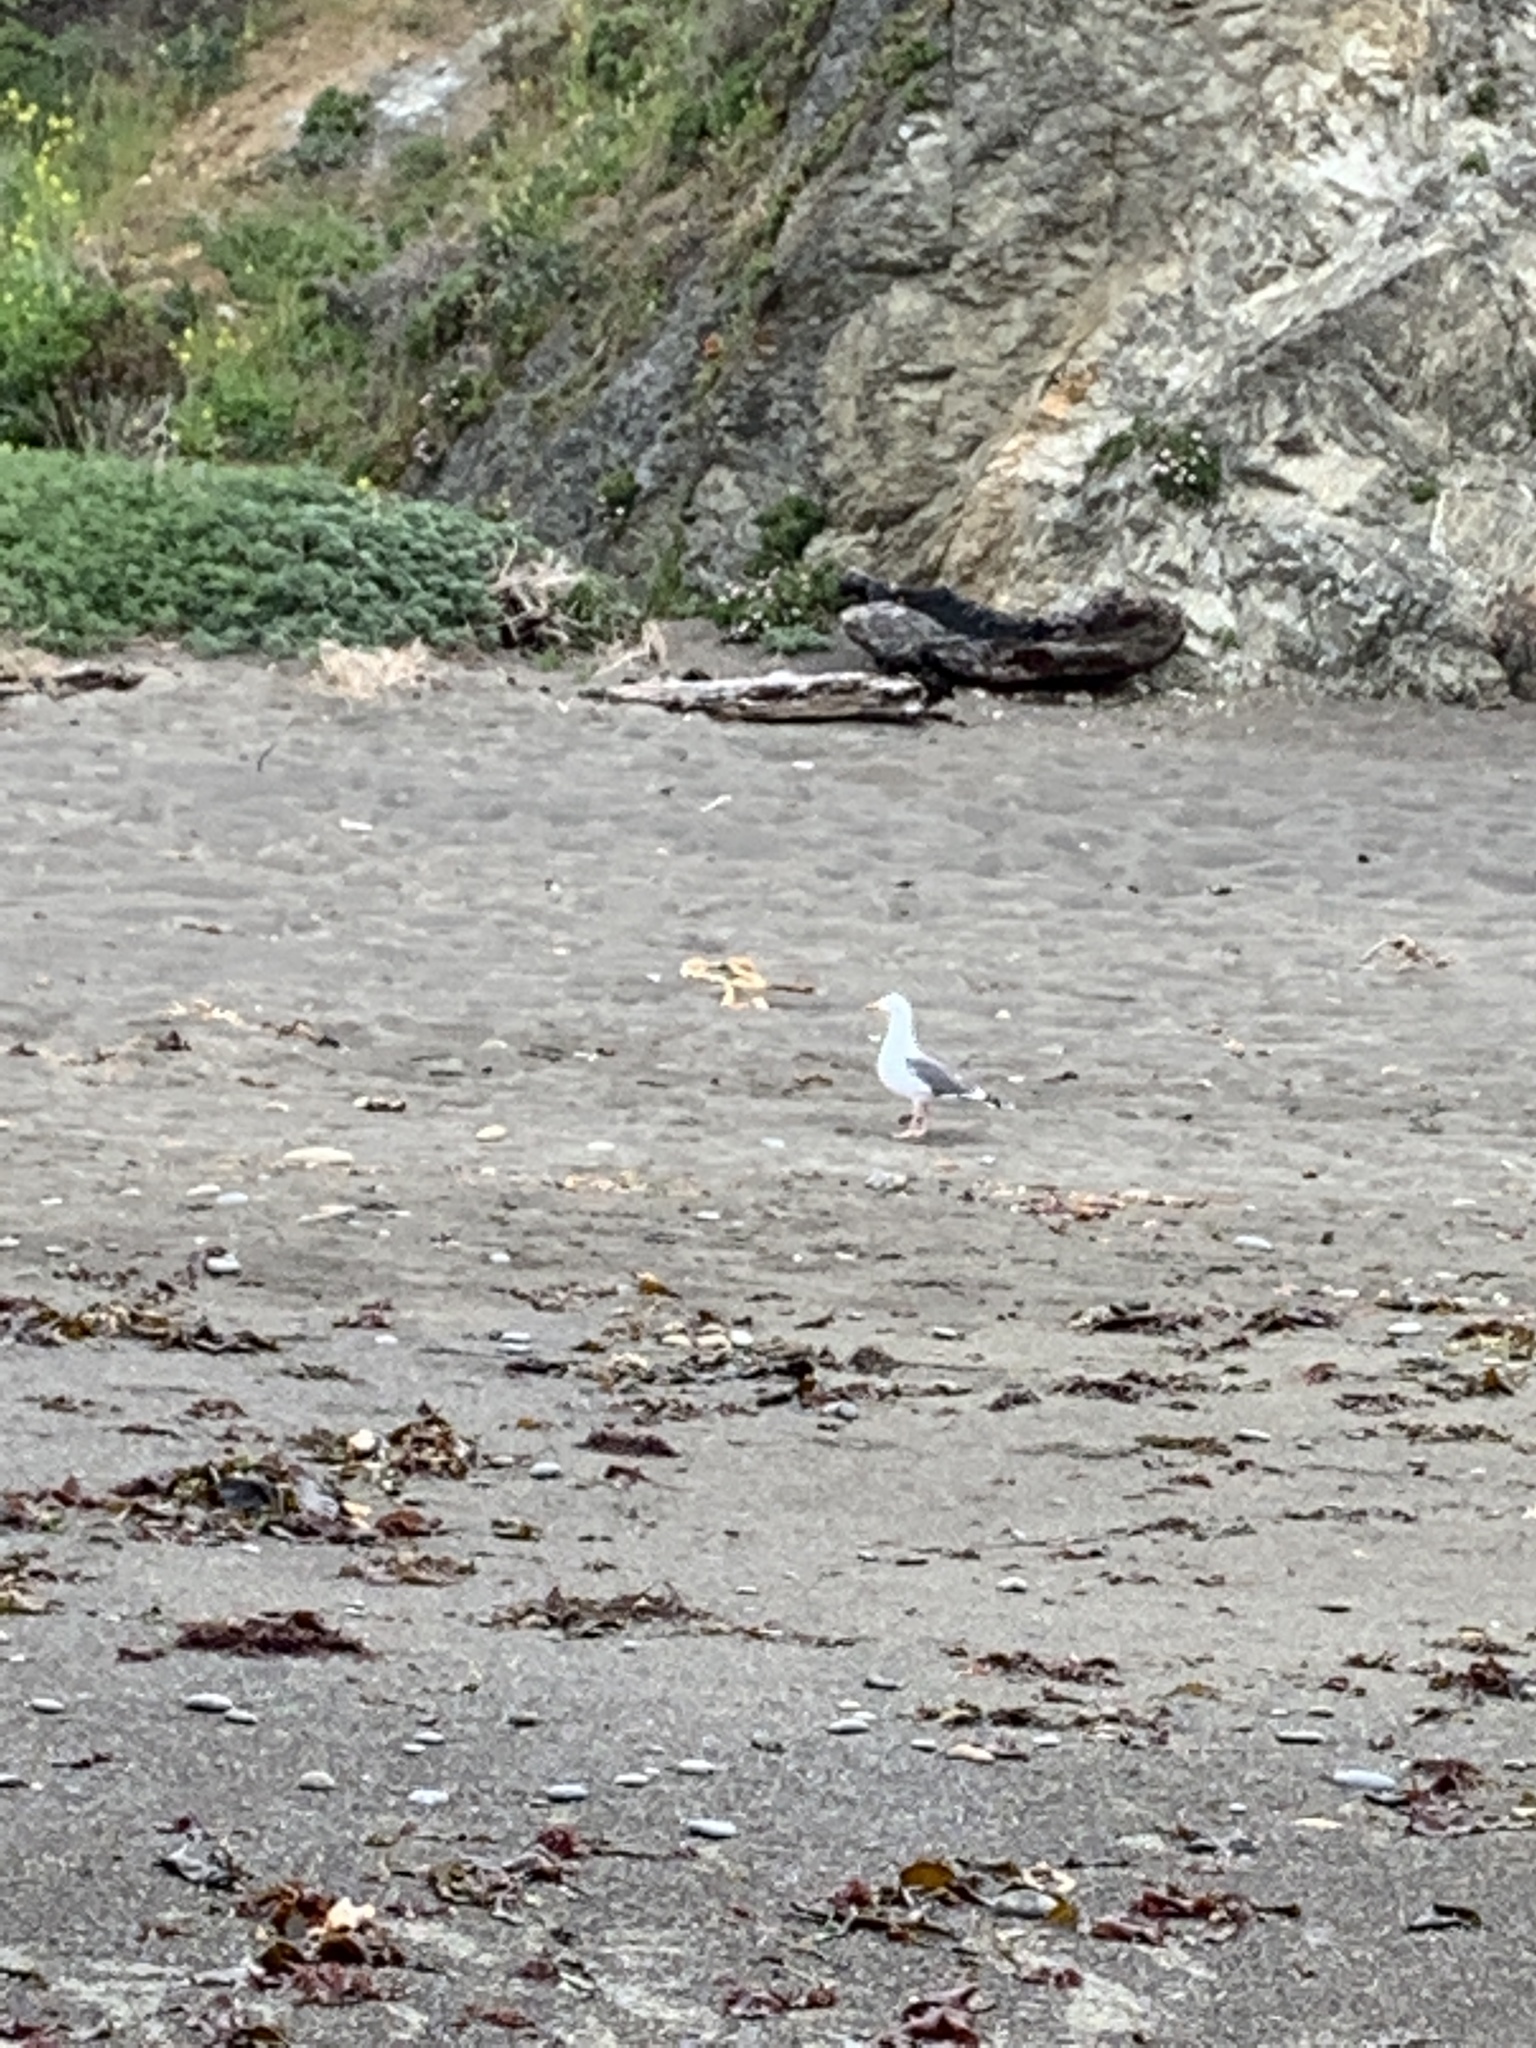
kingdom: Animalia
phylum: Chordata
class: Aves
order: Charadriiformes
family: Laridae
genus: Larus
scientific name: Larus occidentalis
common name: Western gull
